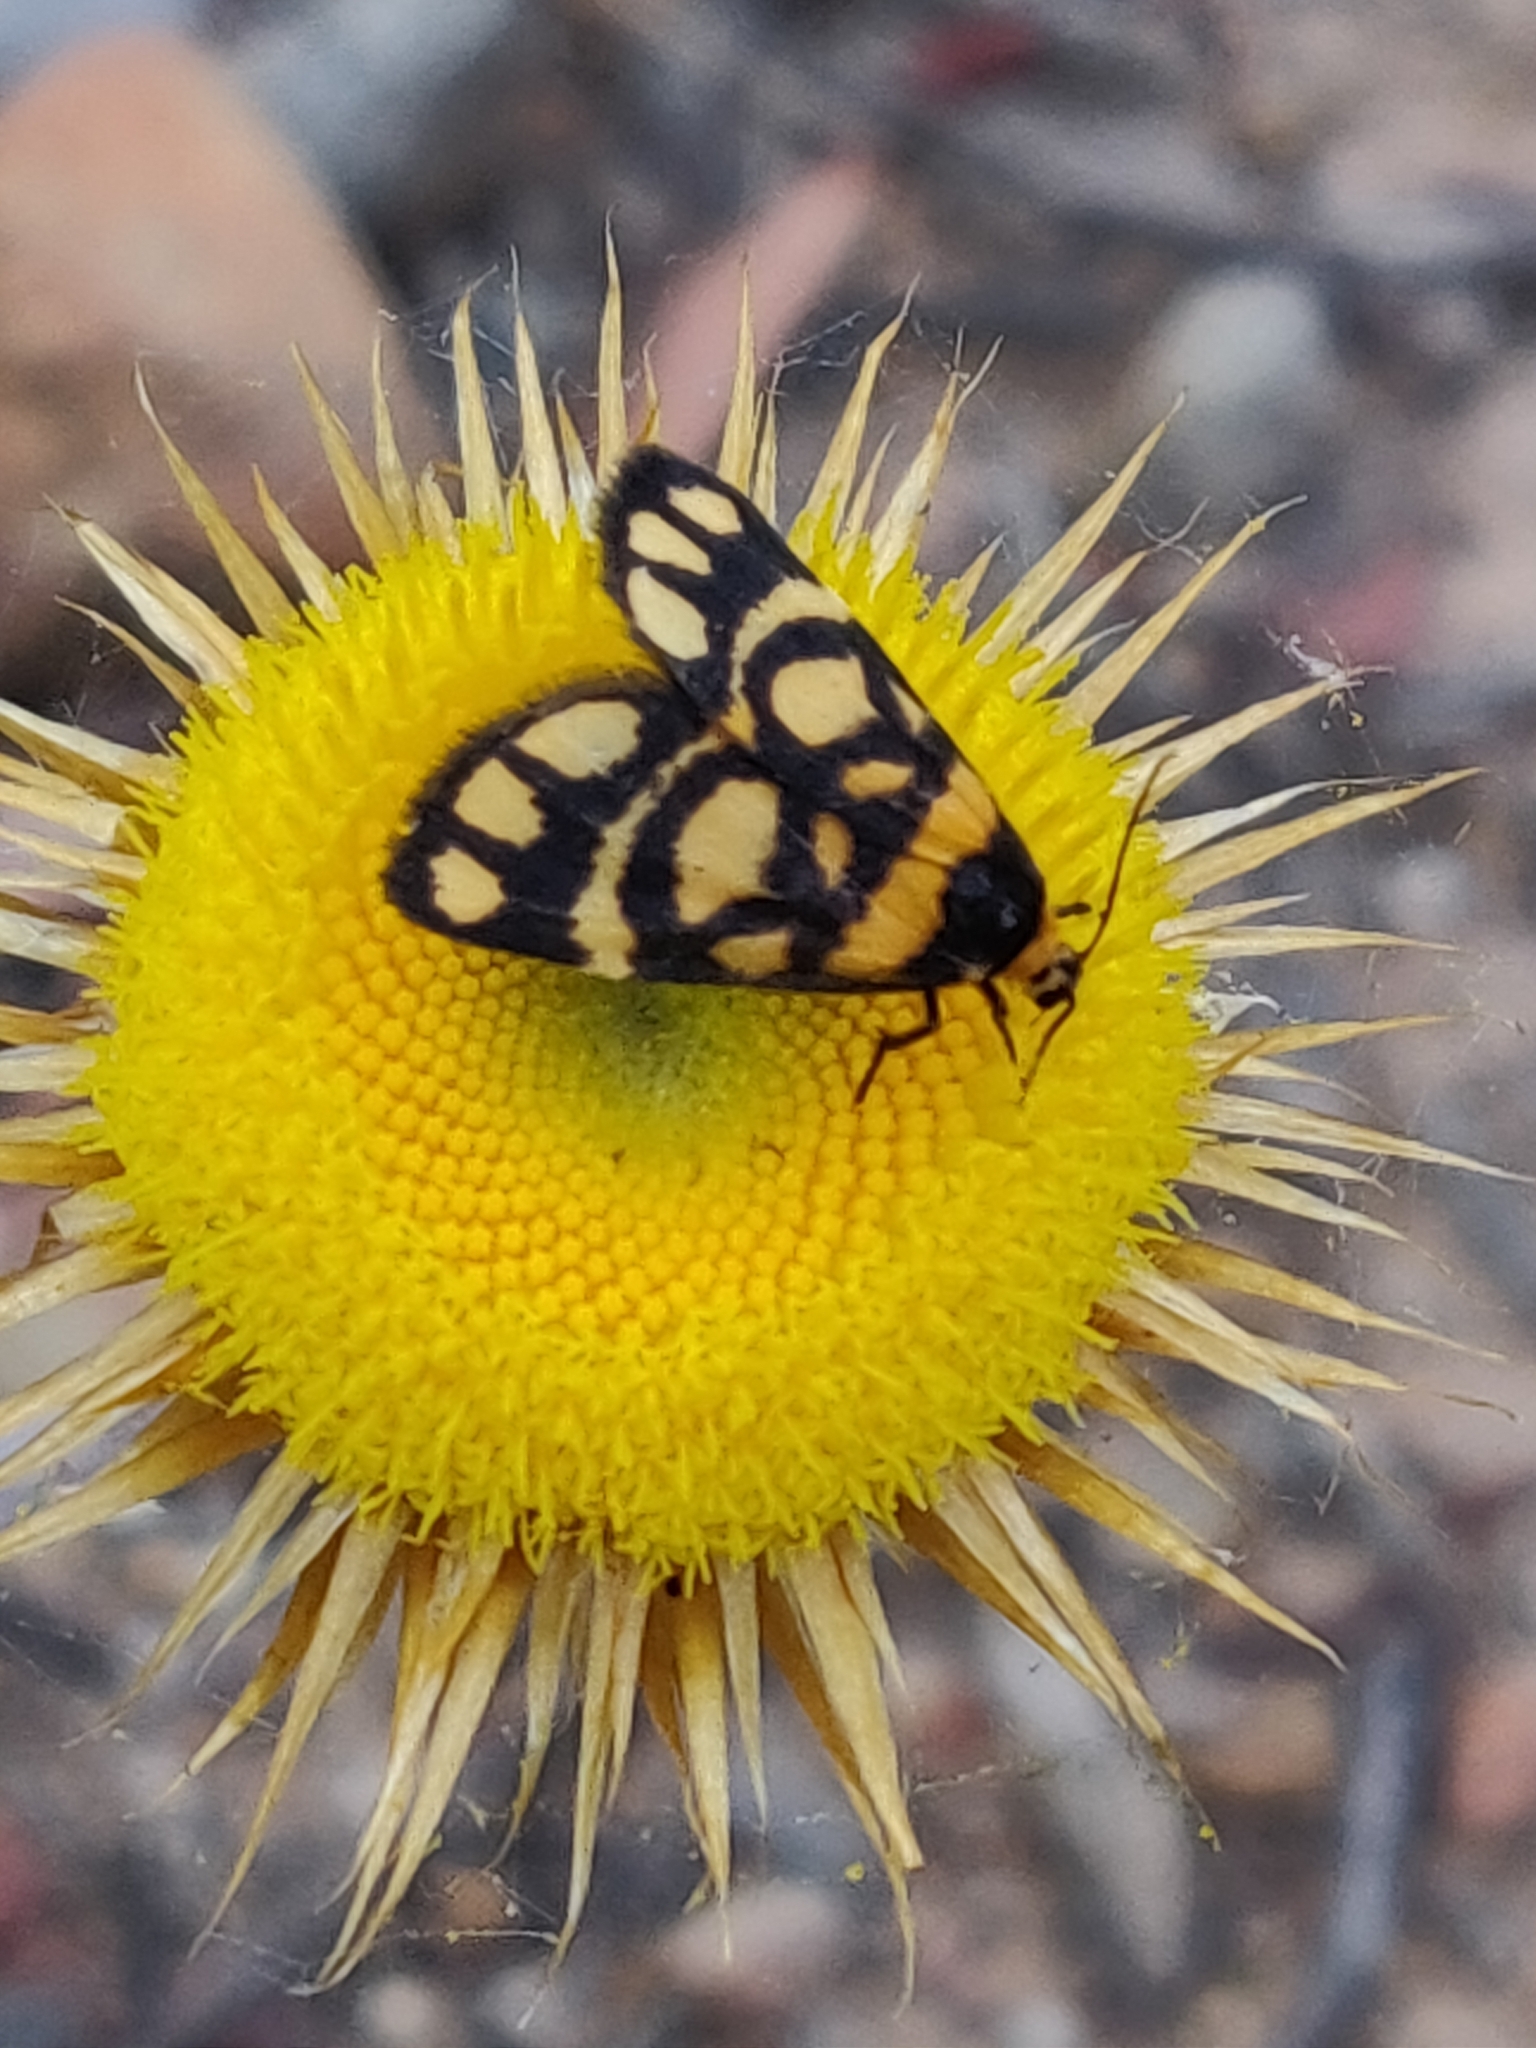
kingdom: Animalia
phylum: Arthropoda
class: Insecta
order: Lepidoptera
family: Erebidae
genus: Asura
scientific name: Asura lydia
